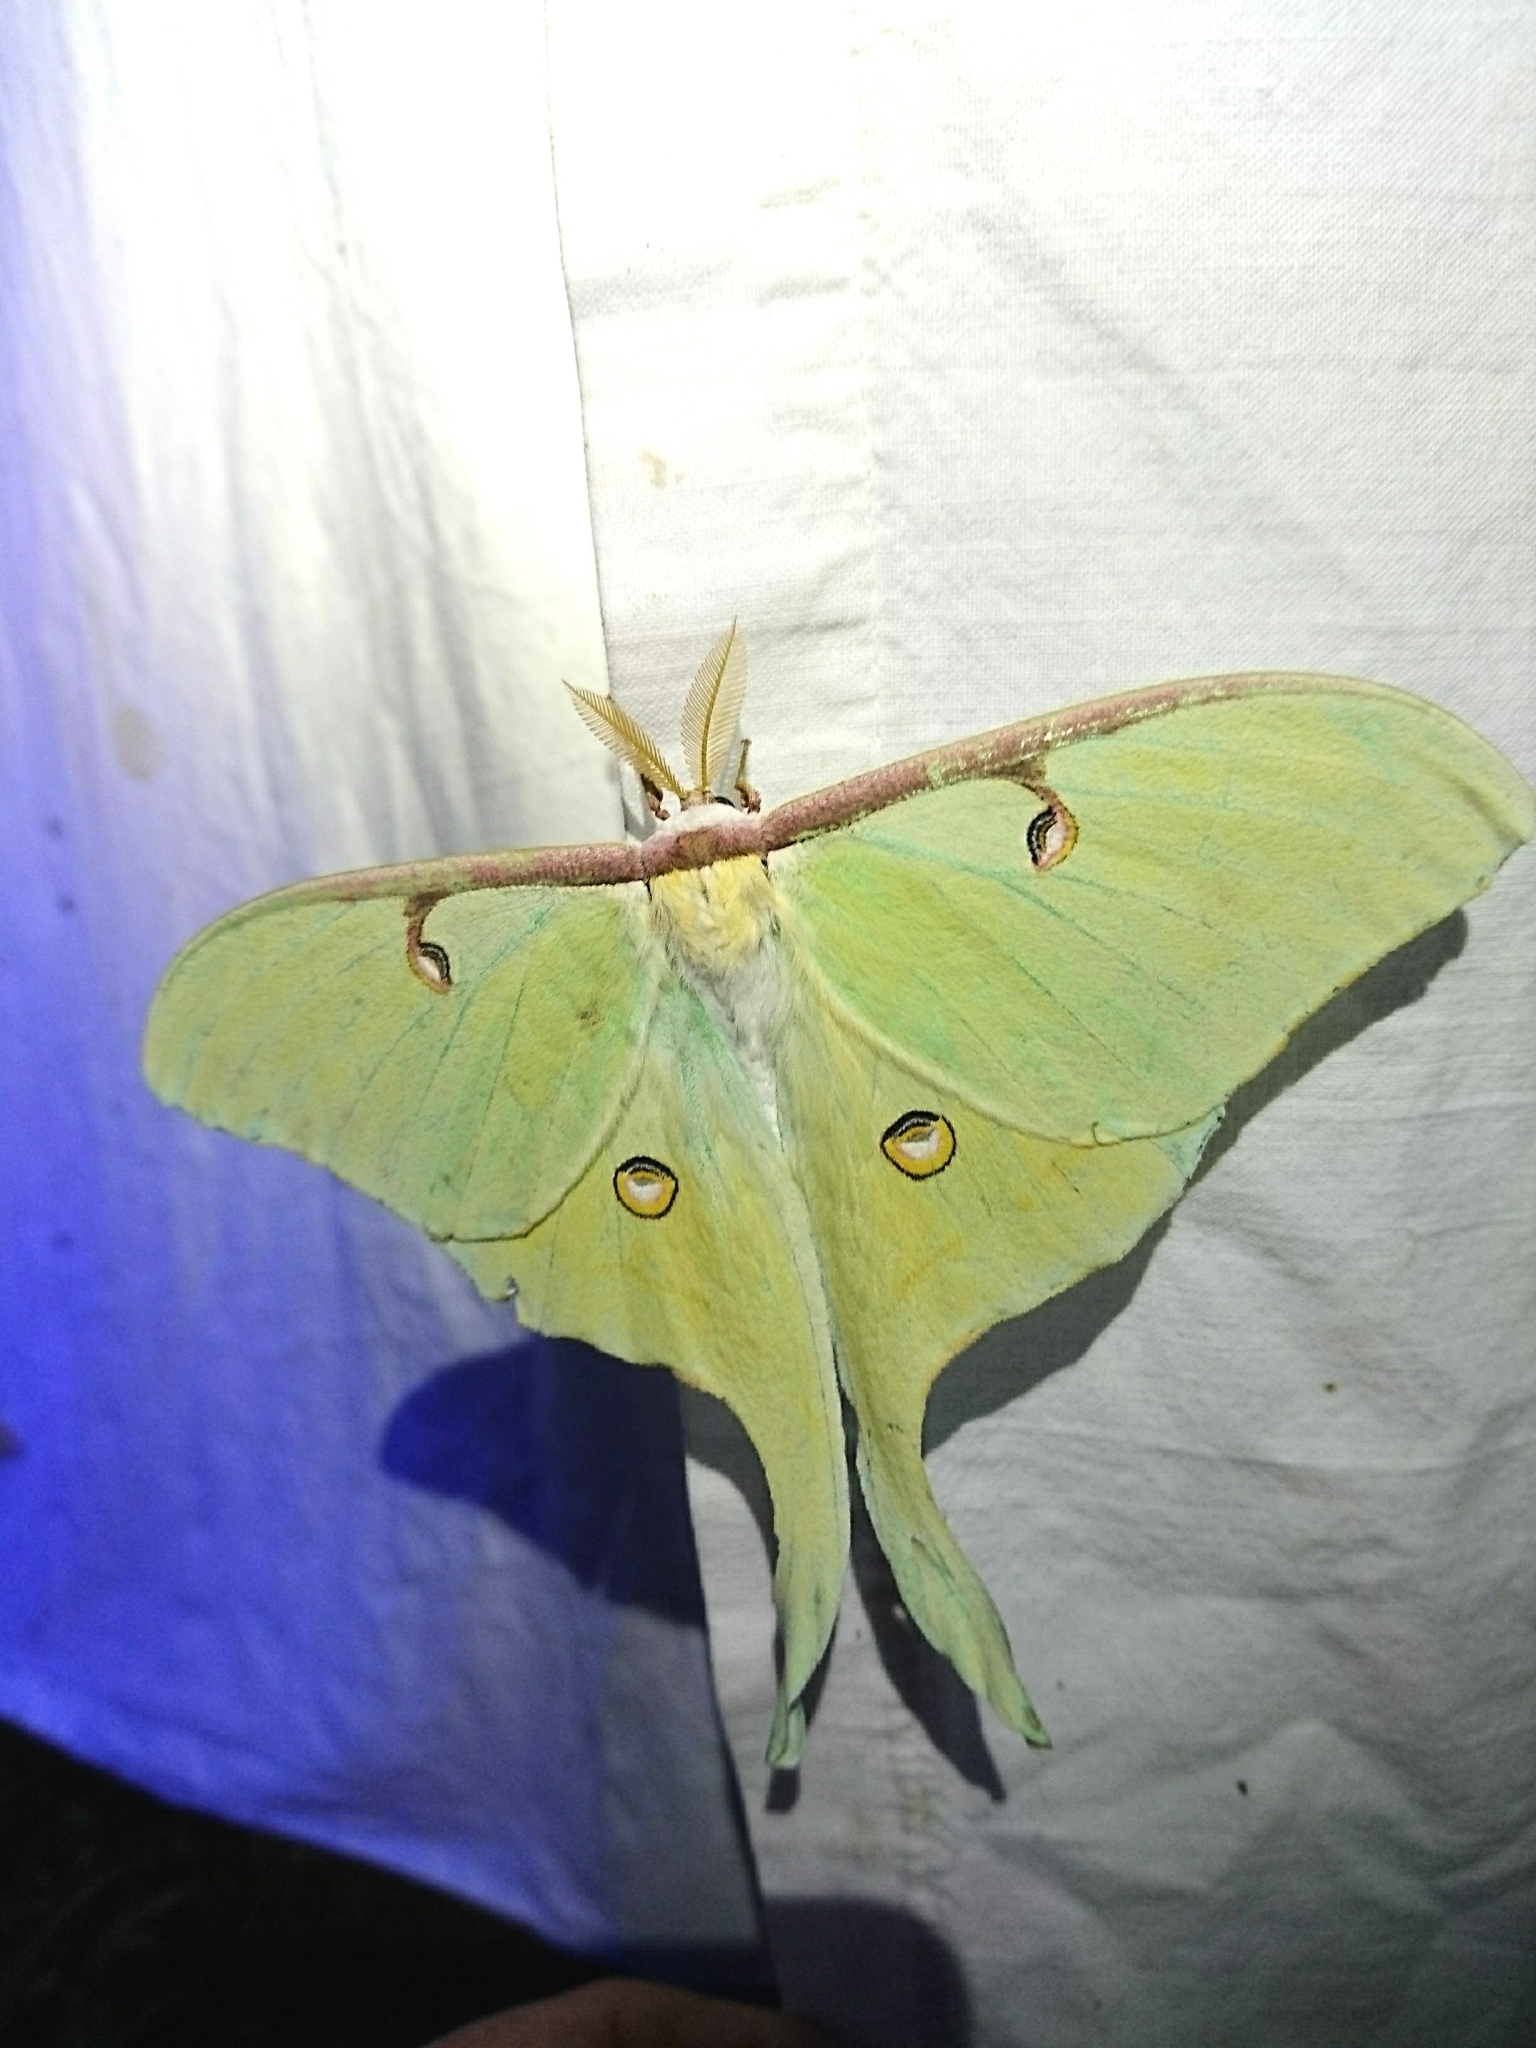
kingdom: Animalia
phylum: Arthropoda
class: Insecta
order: Lepidoptera
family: Saturniidae
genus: Actias
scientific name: Actias luna
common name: Luna moth
